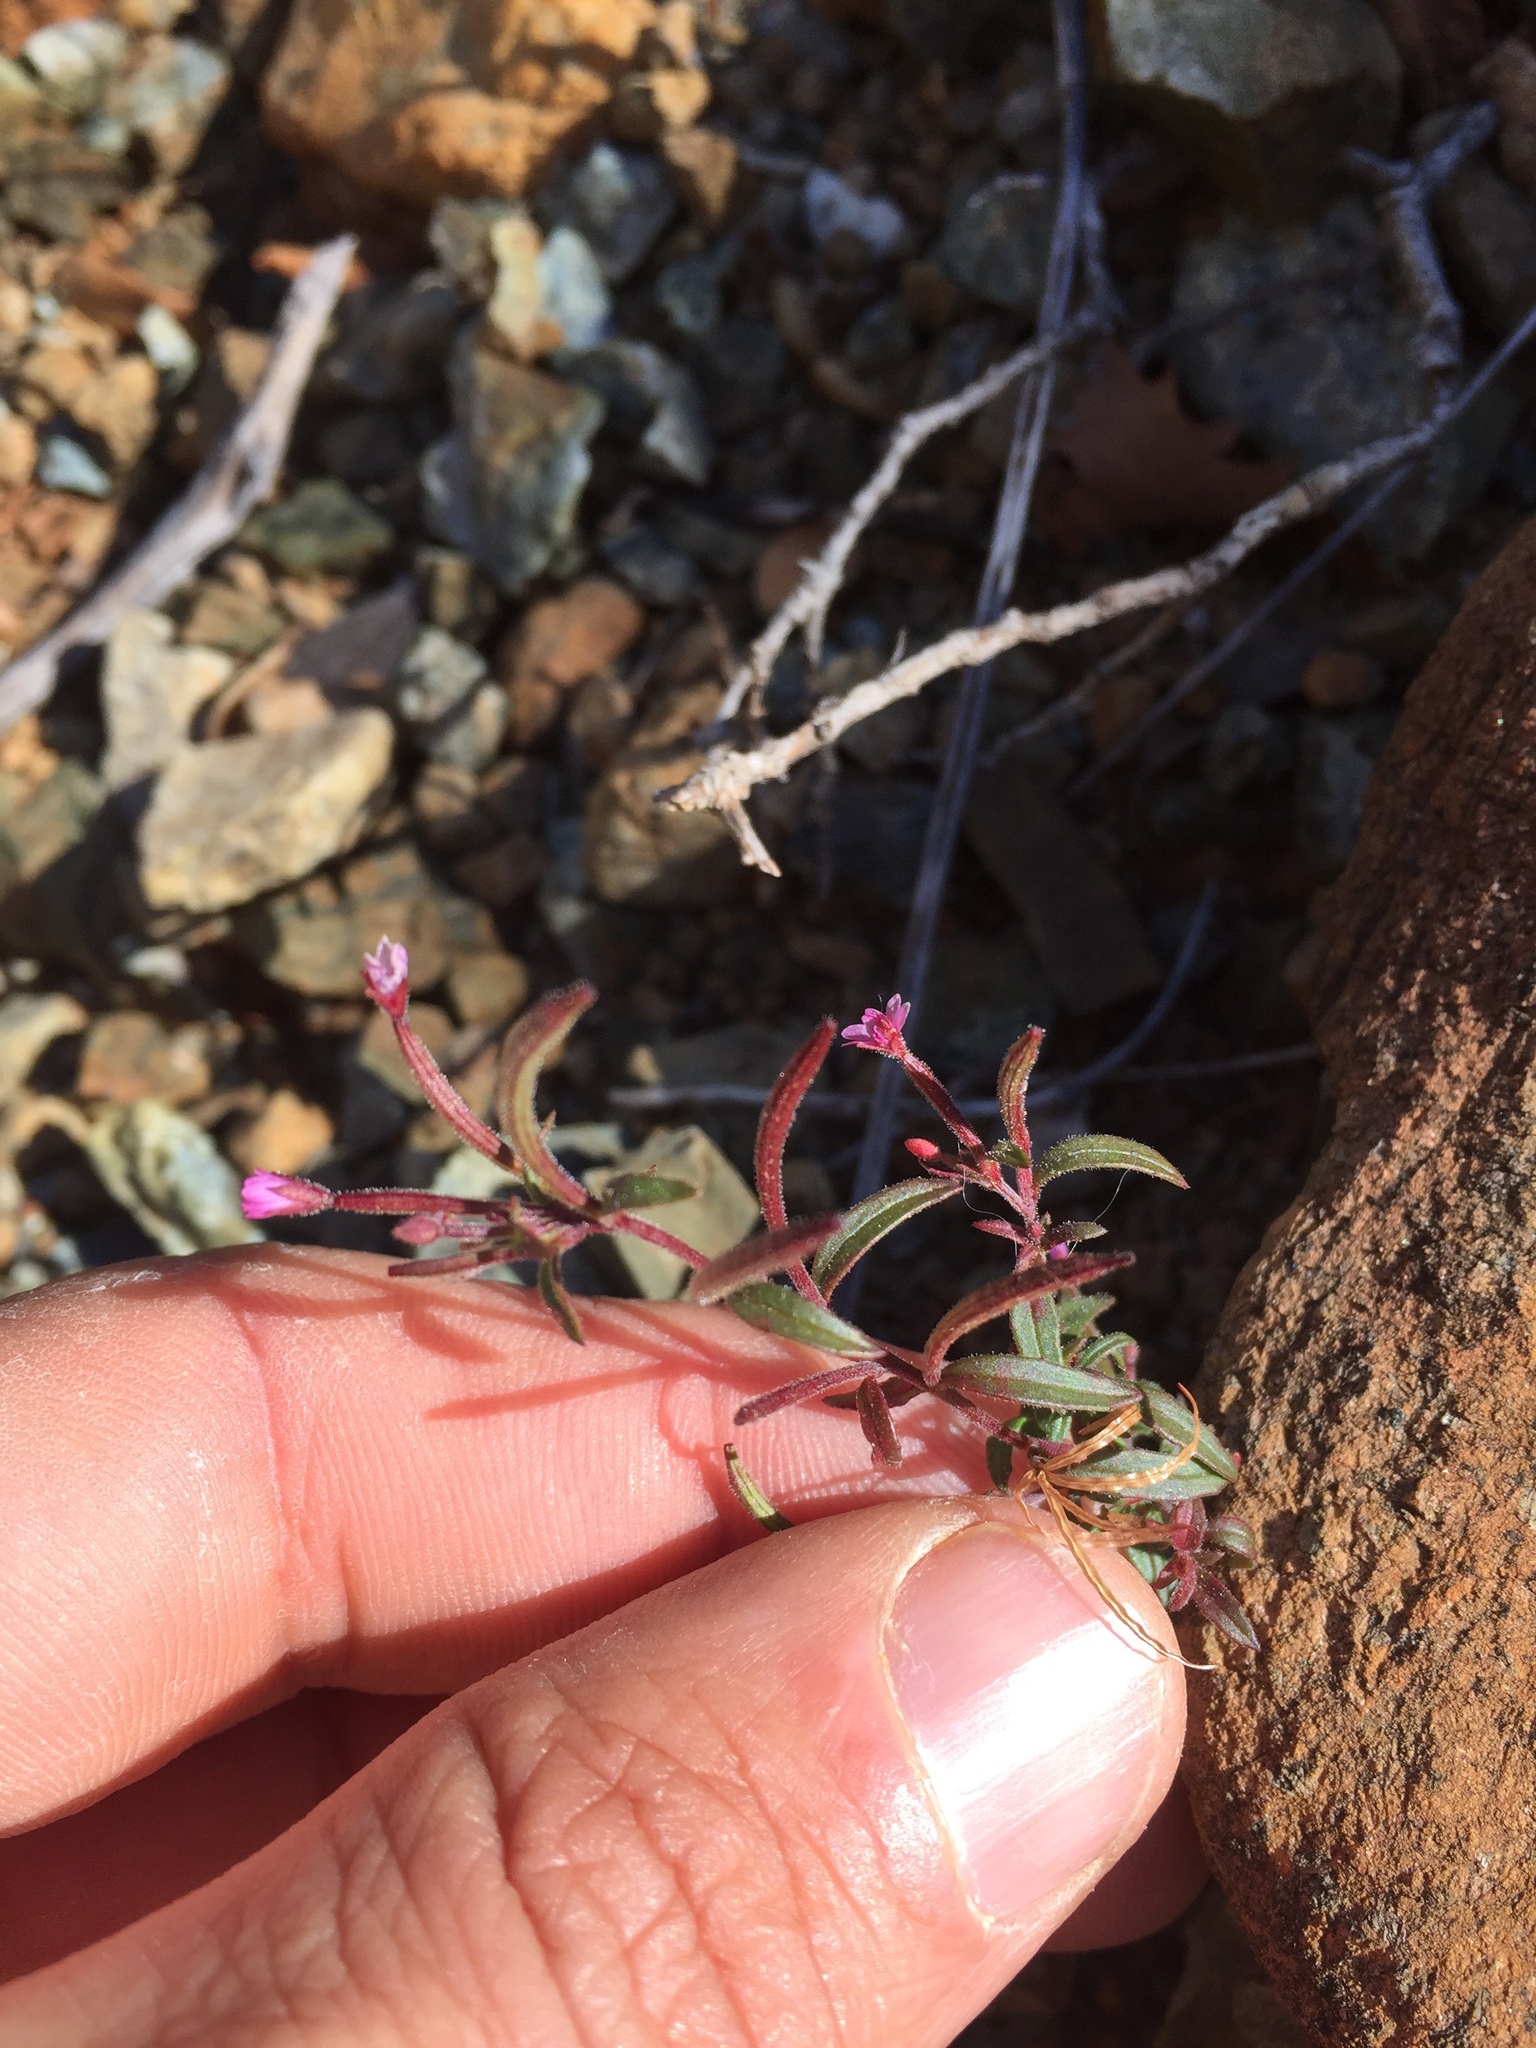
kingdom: Plantae
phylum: Tracheophyta
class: Magnoliopsida
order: Myrtales
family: Onagraceae
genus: Epilobium
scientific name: Epilobium minutum
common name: Chaparral willowherb
